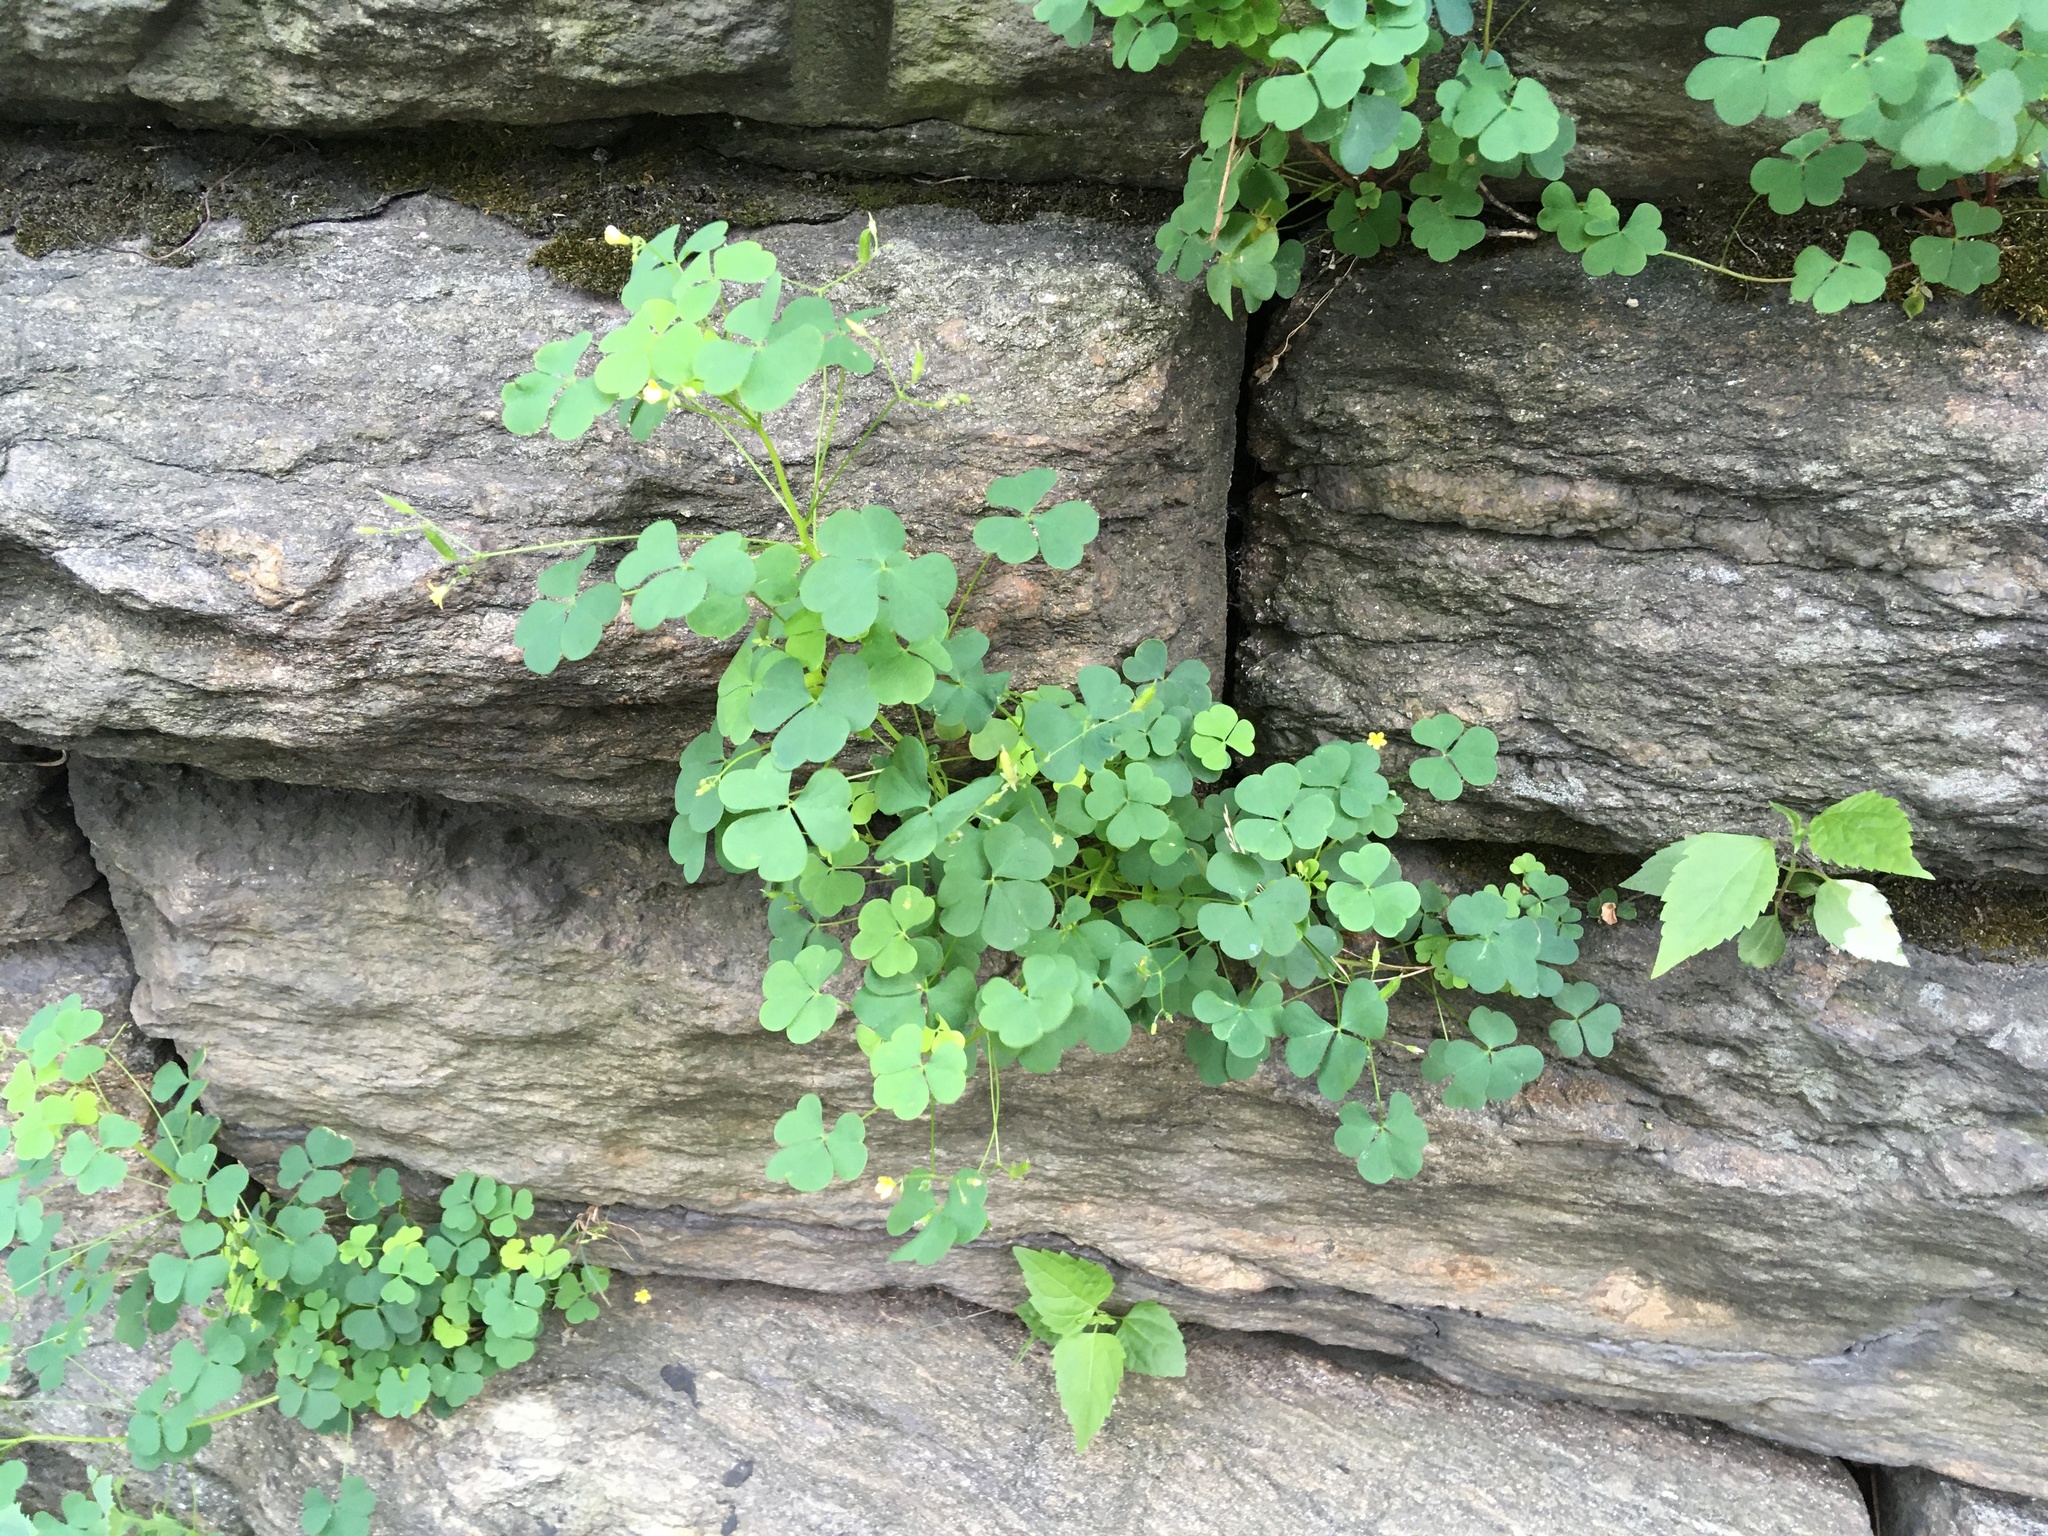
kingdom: Plantae
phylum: Tracheophyta
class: Magnoliopsida
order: Oxalidales
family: Oxalidaceae
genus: Oxalis
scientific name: Oxalis corniculata
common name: Procumbent yellow-sorrel
